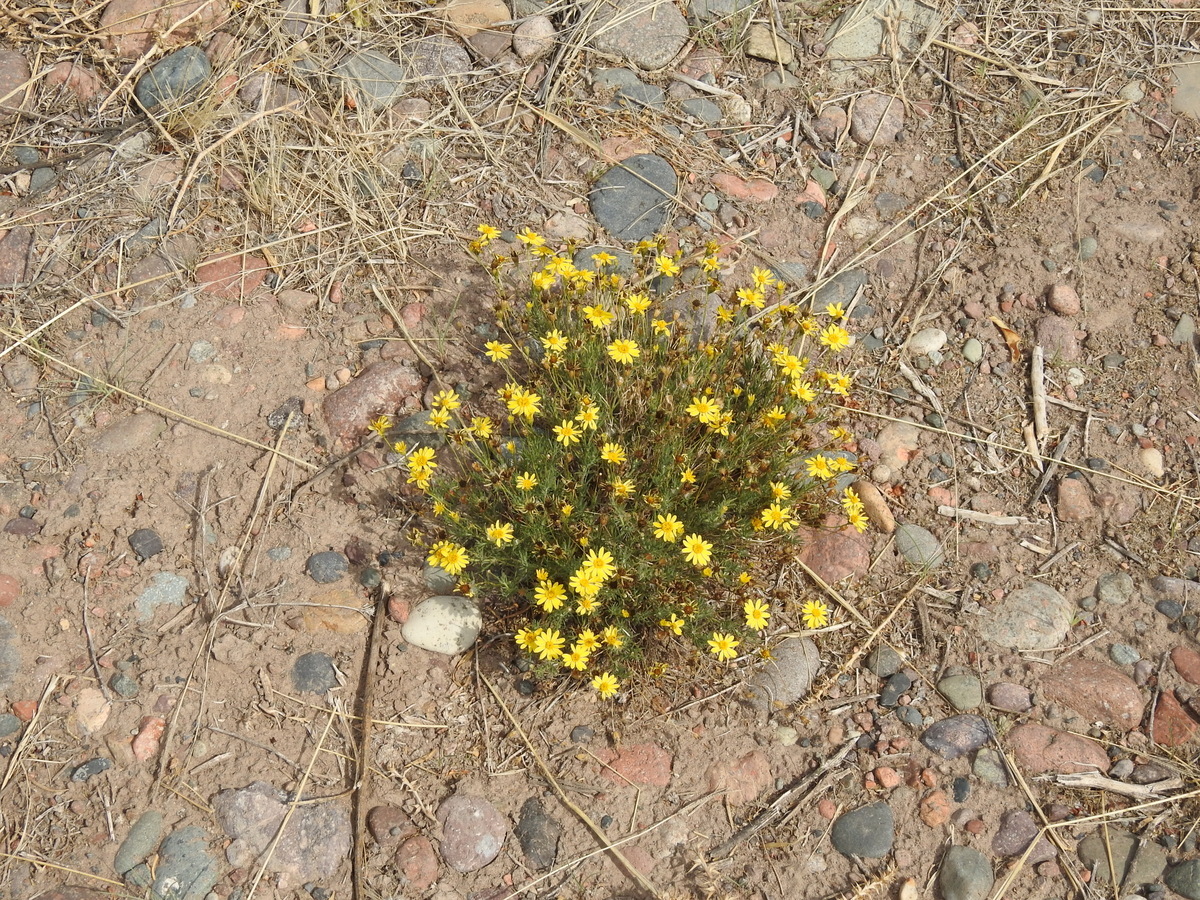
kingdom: Plantae
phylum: Tracheophyta
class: Magnoliopsida
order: Asterales
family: Asteraceae
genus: Thymophylla
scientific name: Thymophylla pentachaeta
